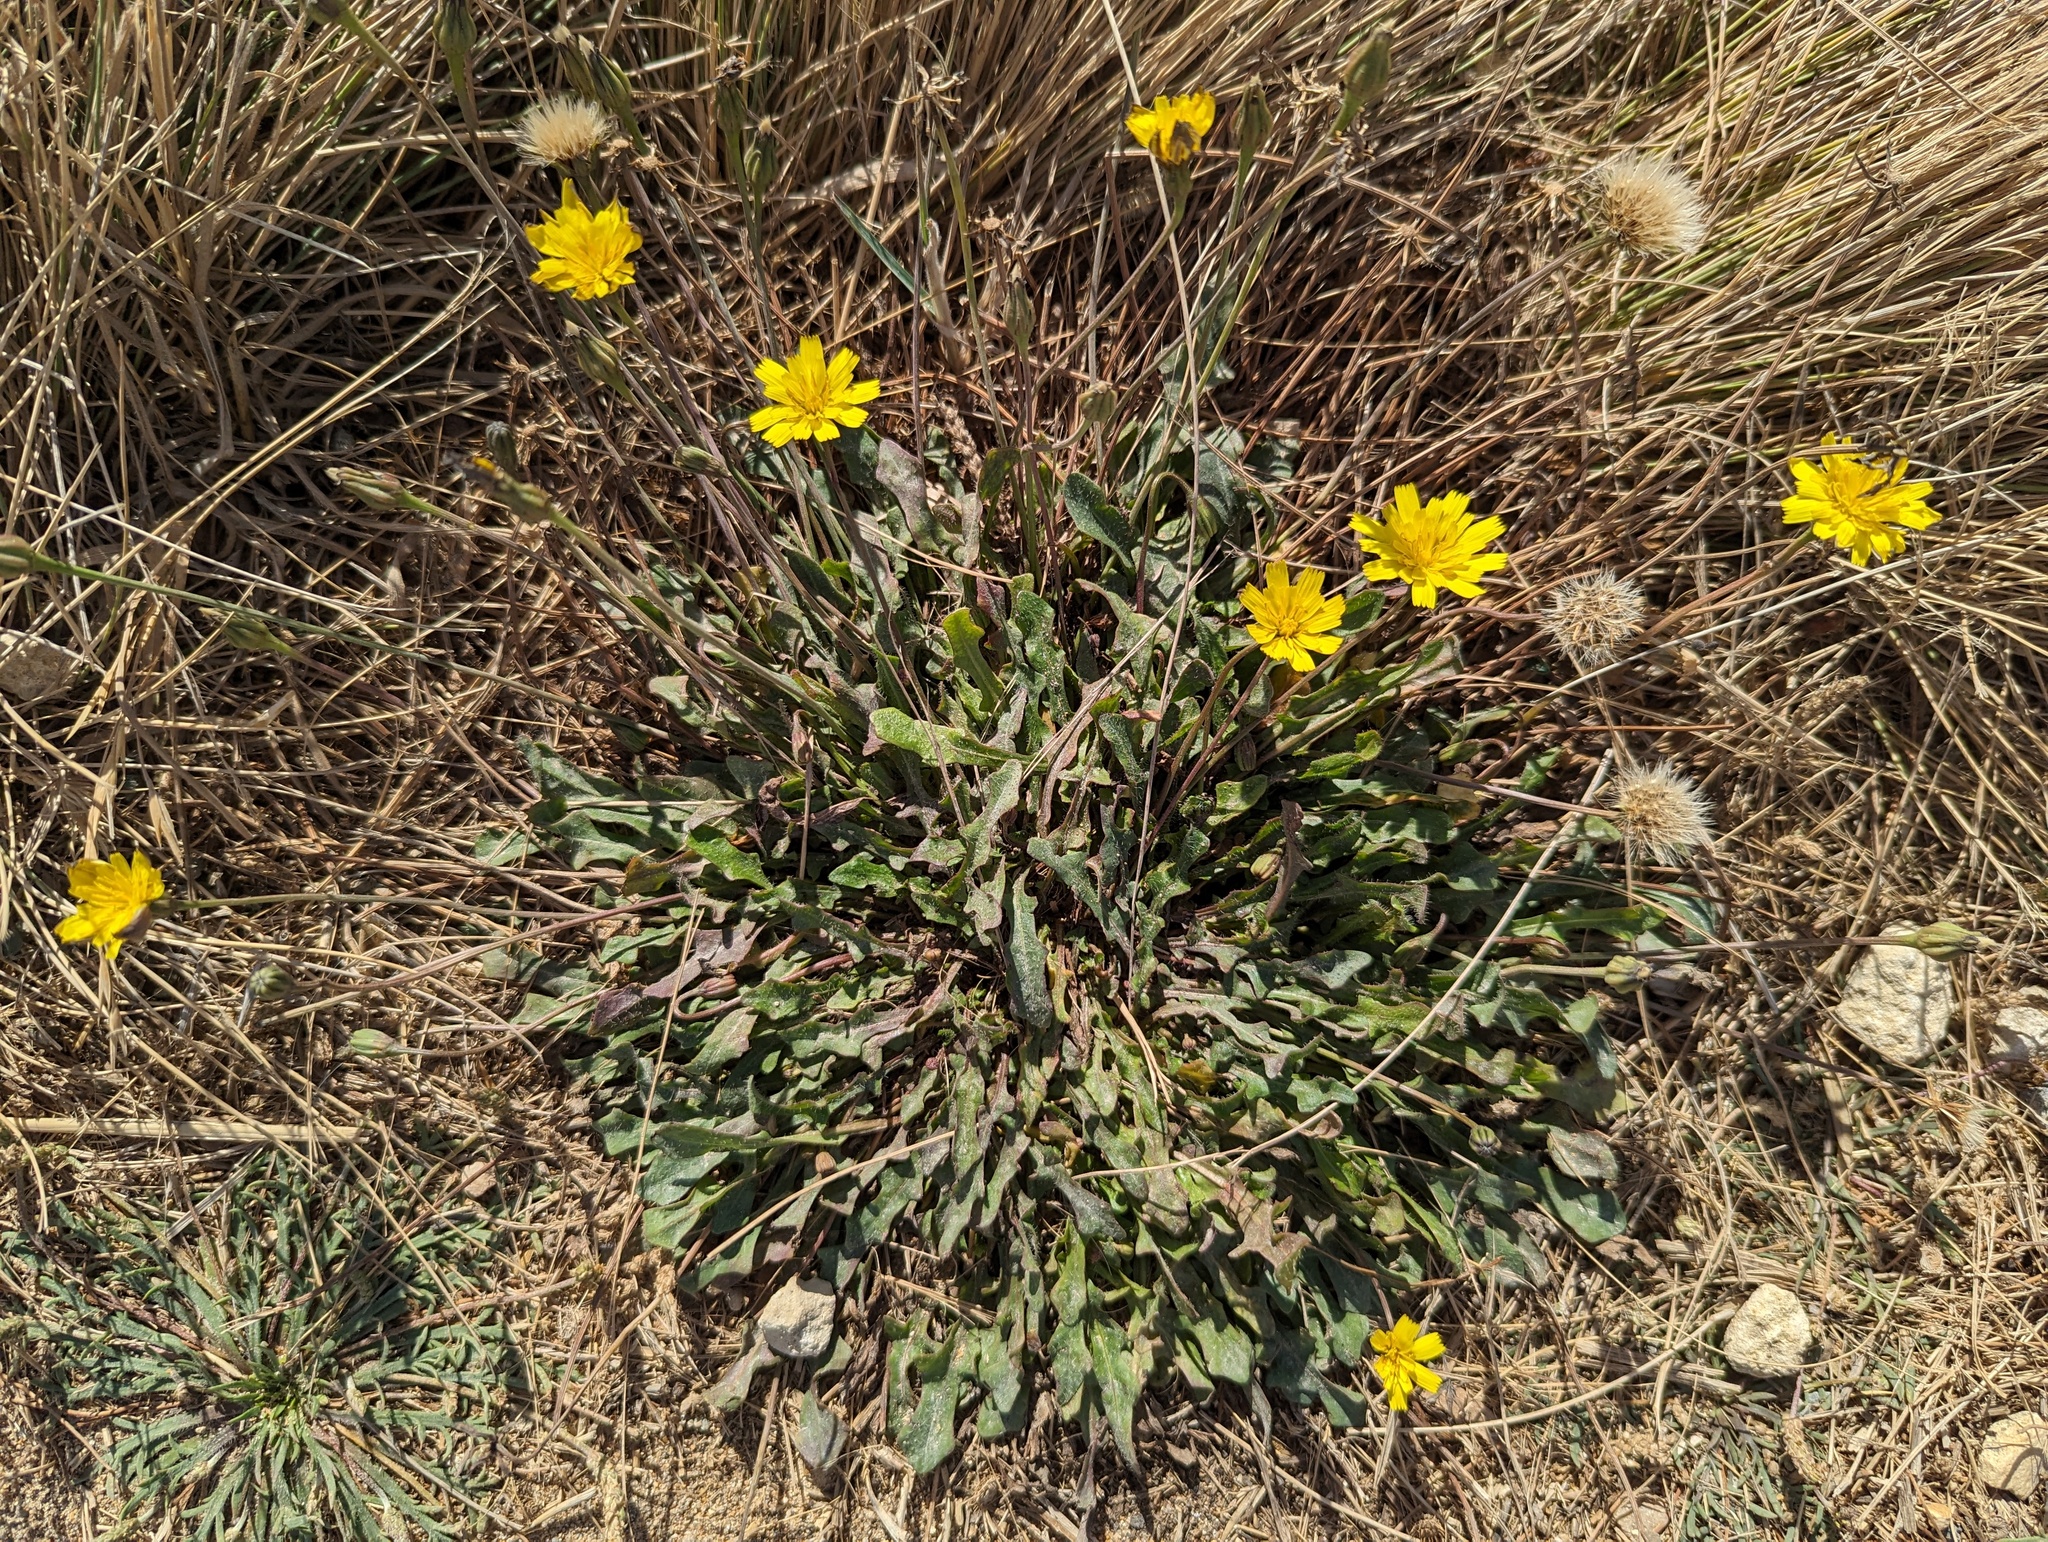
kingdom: Plantae
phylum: Tracheophyta
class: Magnoliopsida
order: Asterales
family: Asteraceae
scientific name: Asteraceae
